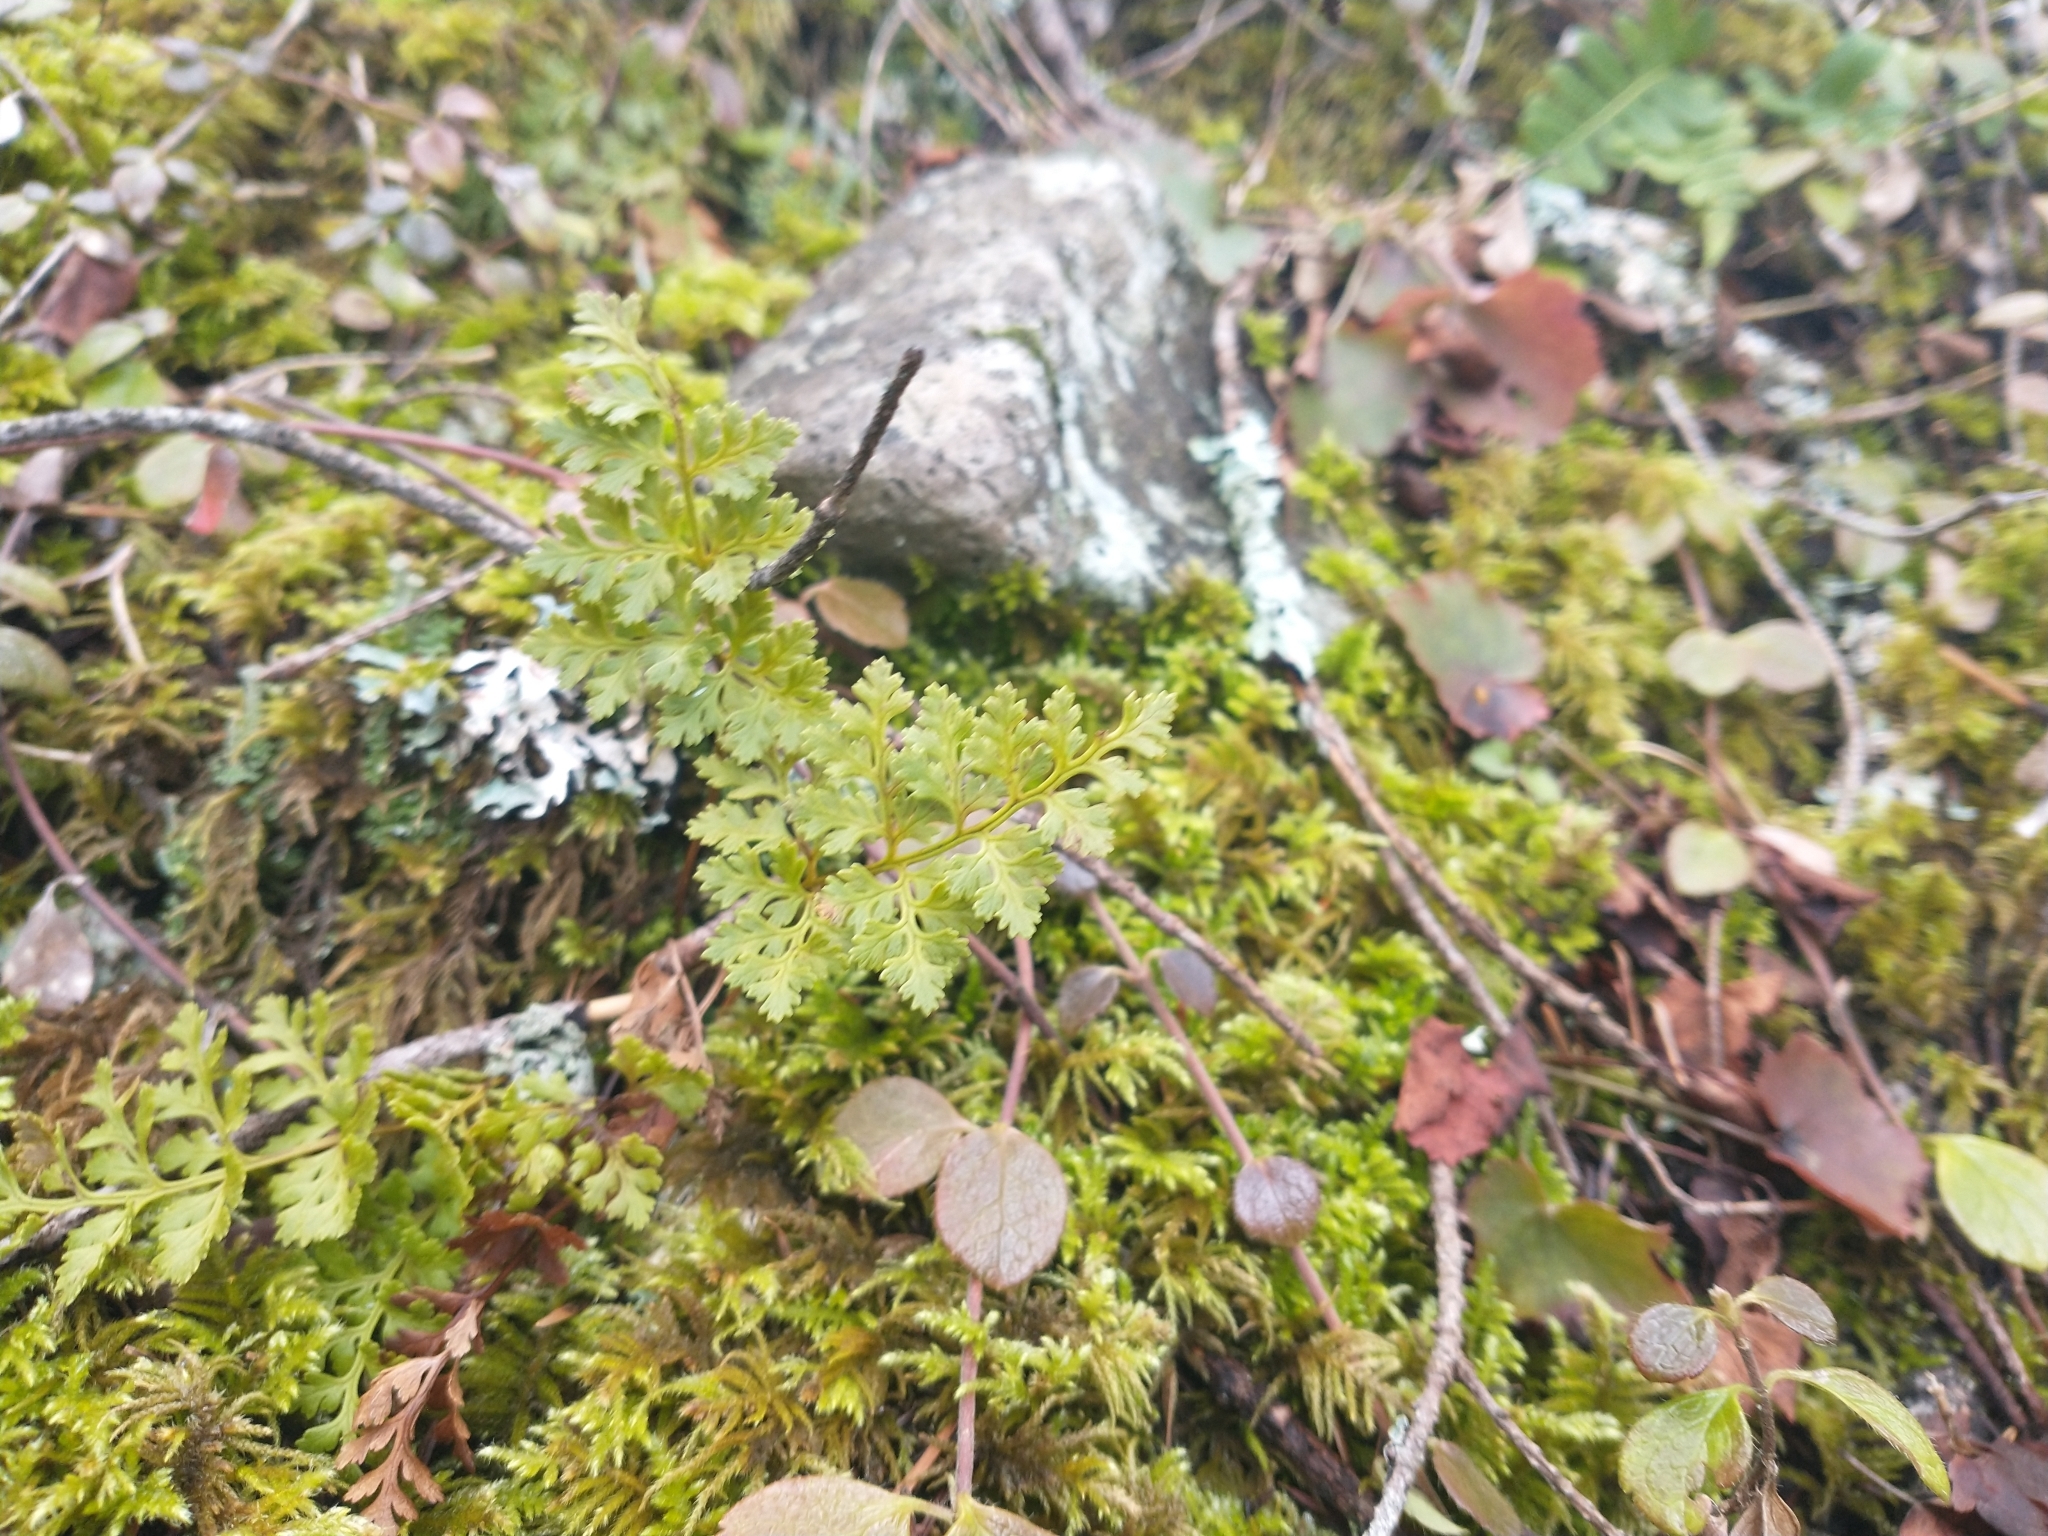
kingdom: Plantae
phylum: Tracheophyta
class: Polypodiopsida
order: Polypodiales
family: Pteridaceae
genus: Cryptogramma
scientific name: Cryptogramma acrostichoides
